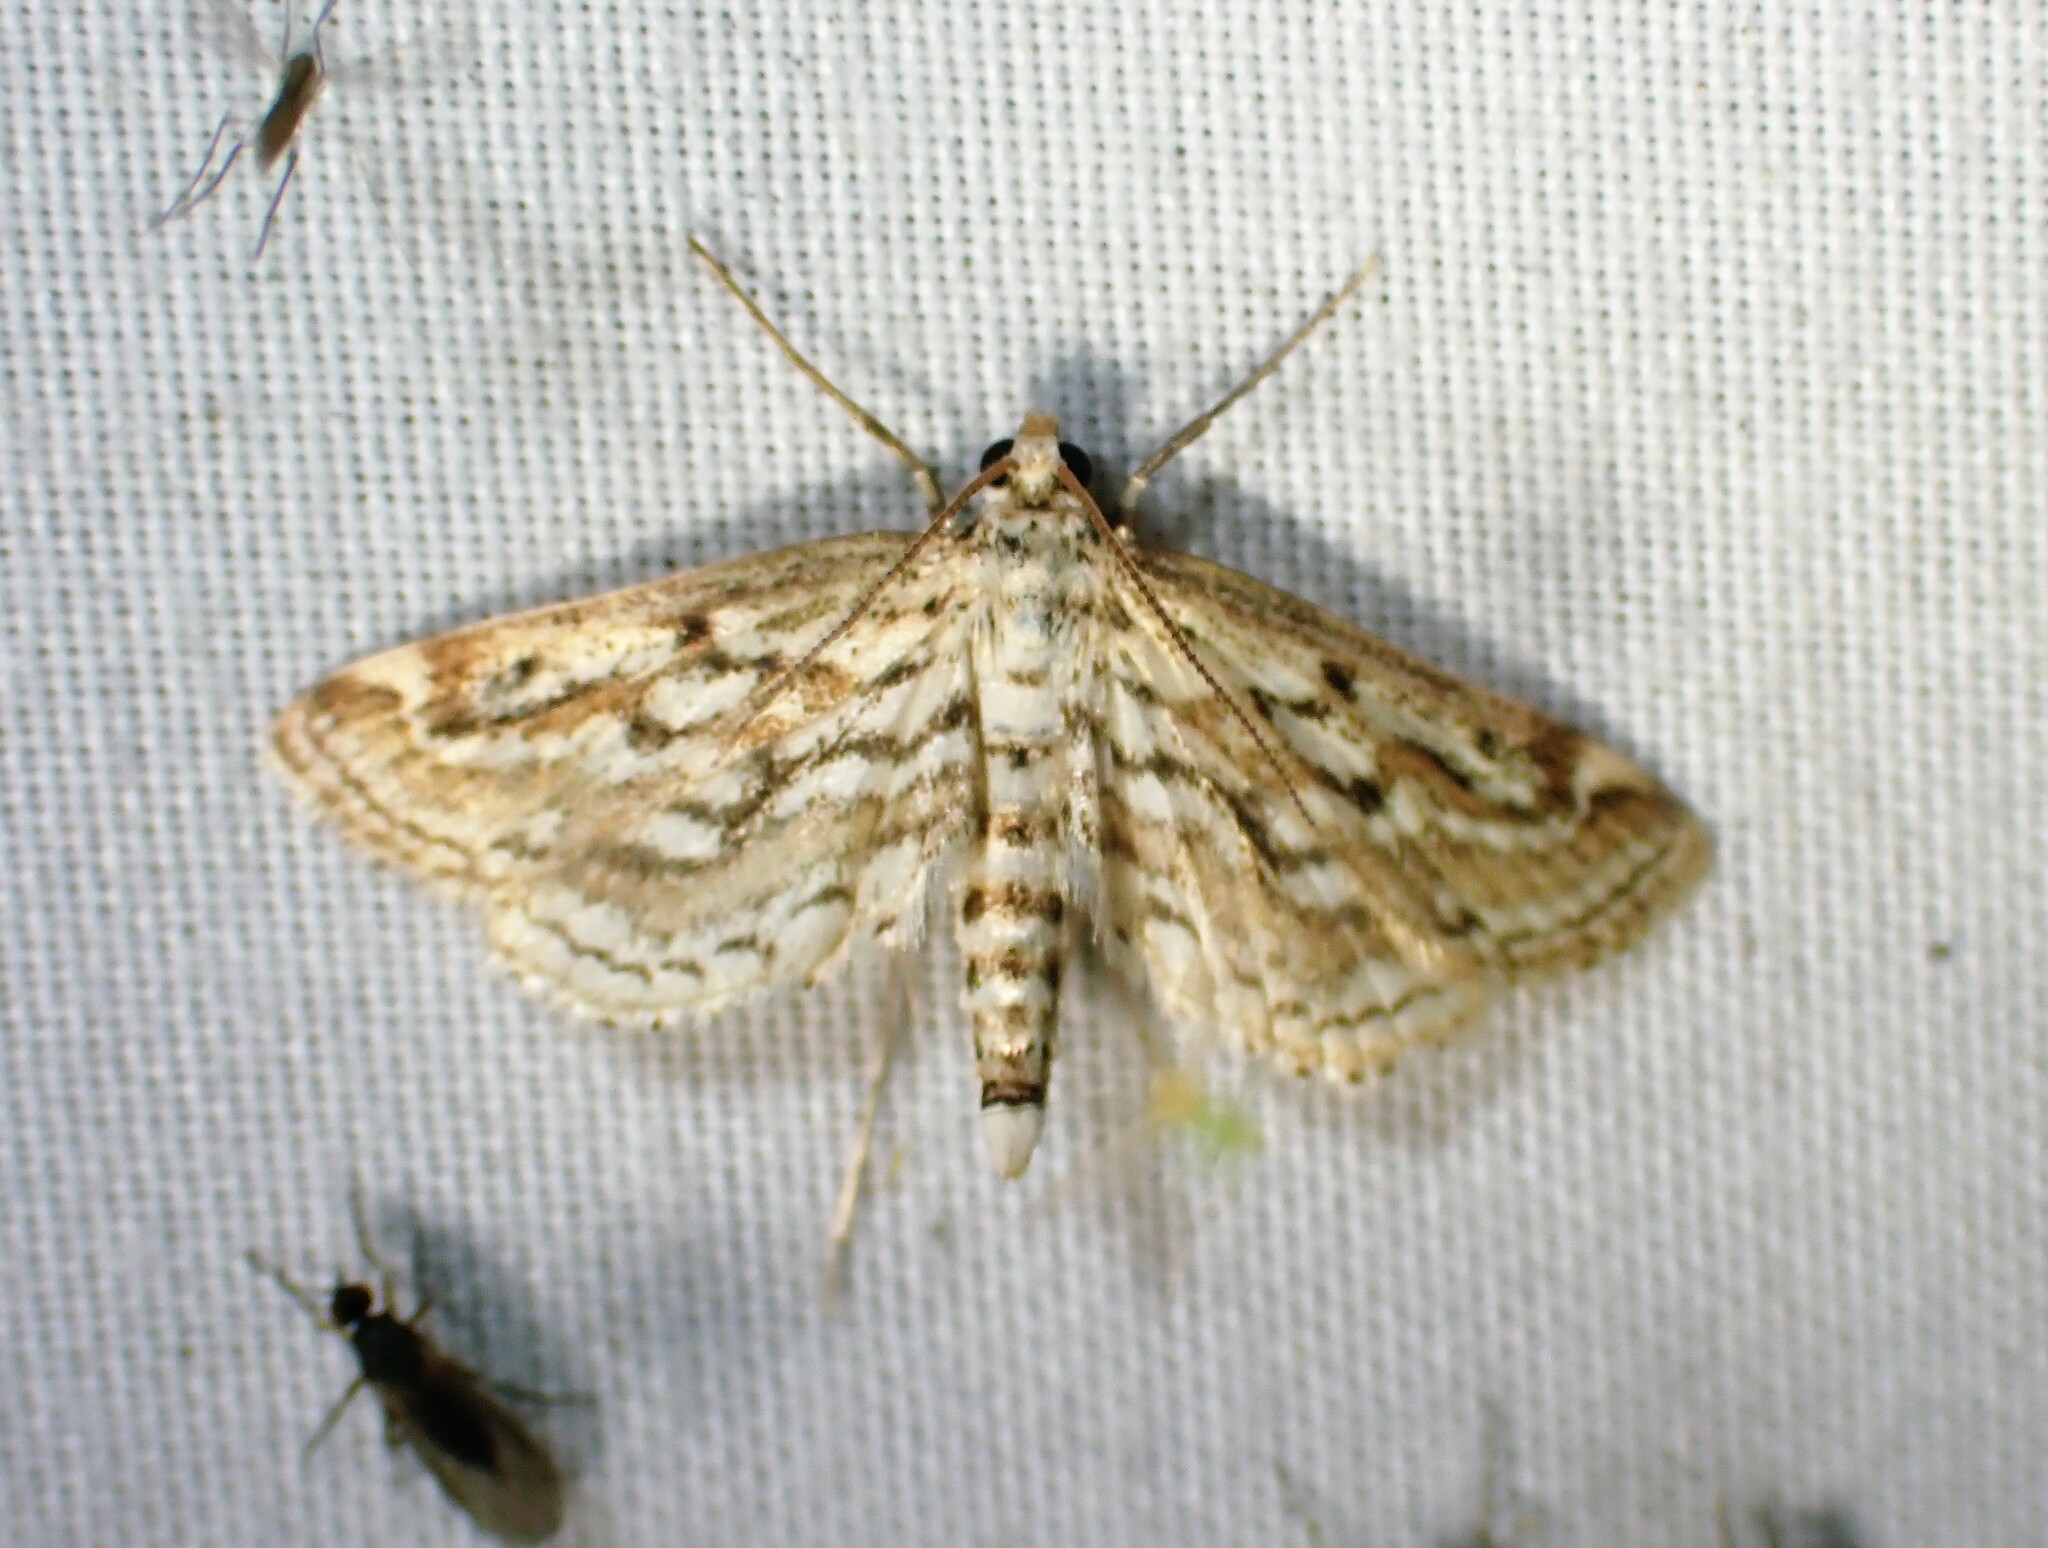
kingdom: Animalia
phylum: Arthropoda
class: Insecta
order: Lepidoptera
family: Crambidae
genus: Parapoynx
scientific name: Parapoynx allionealis
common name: Bladderwort casemaker
